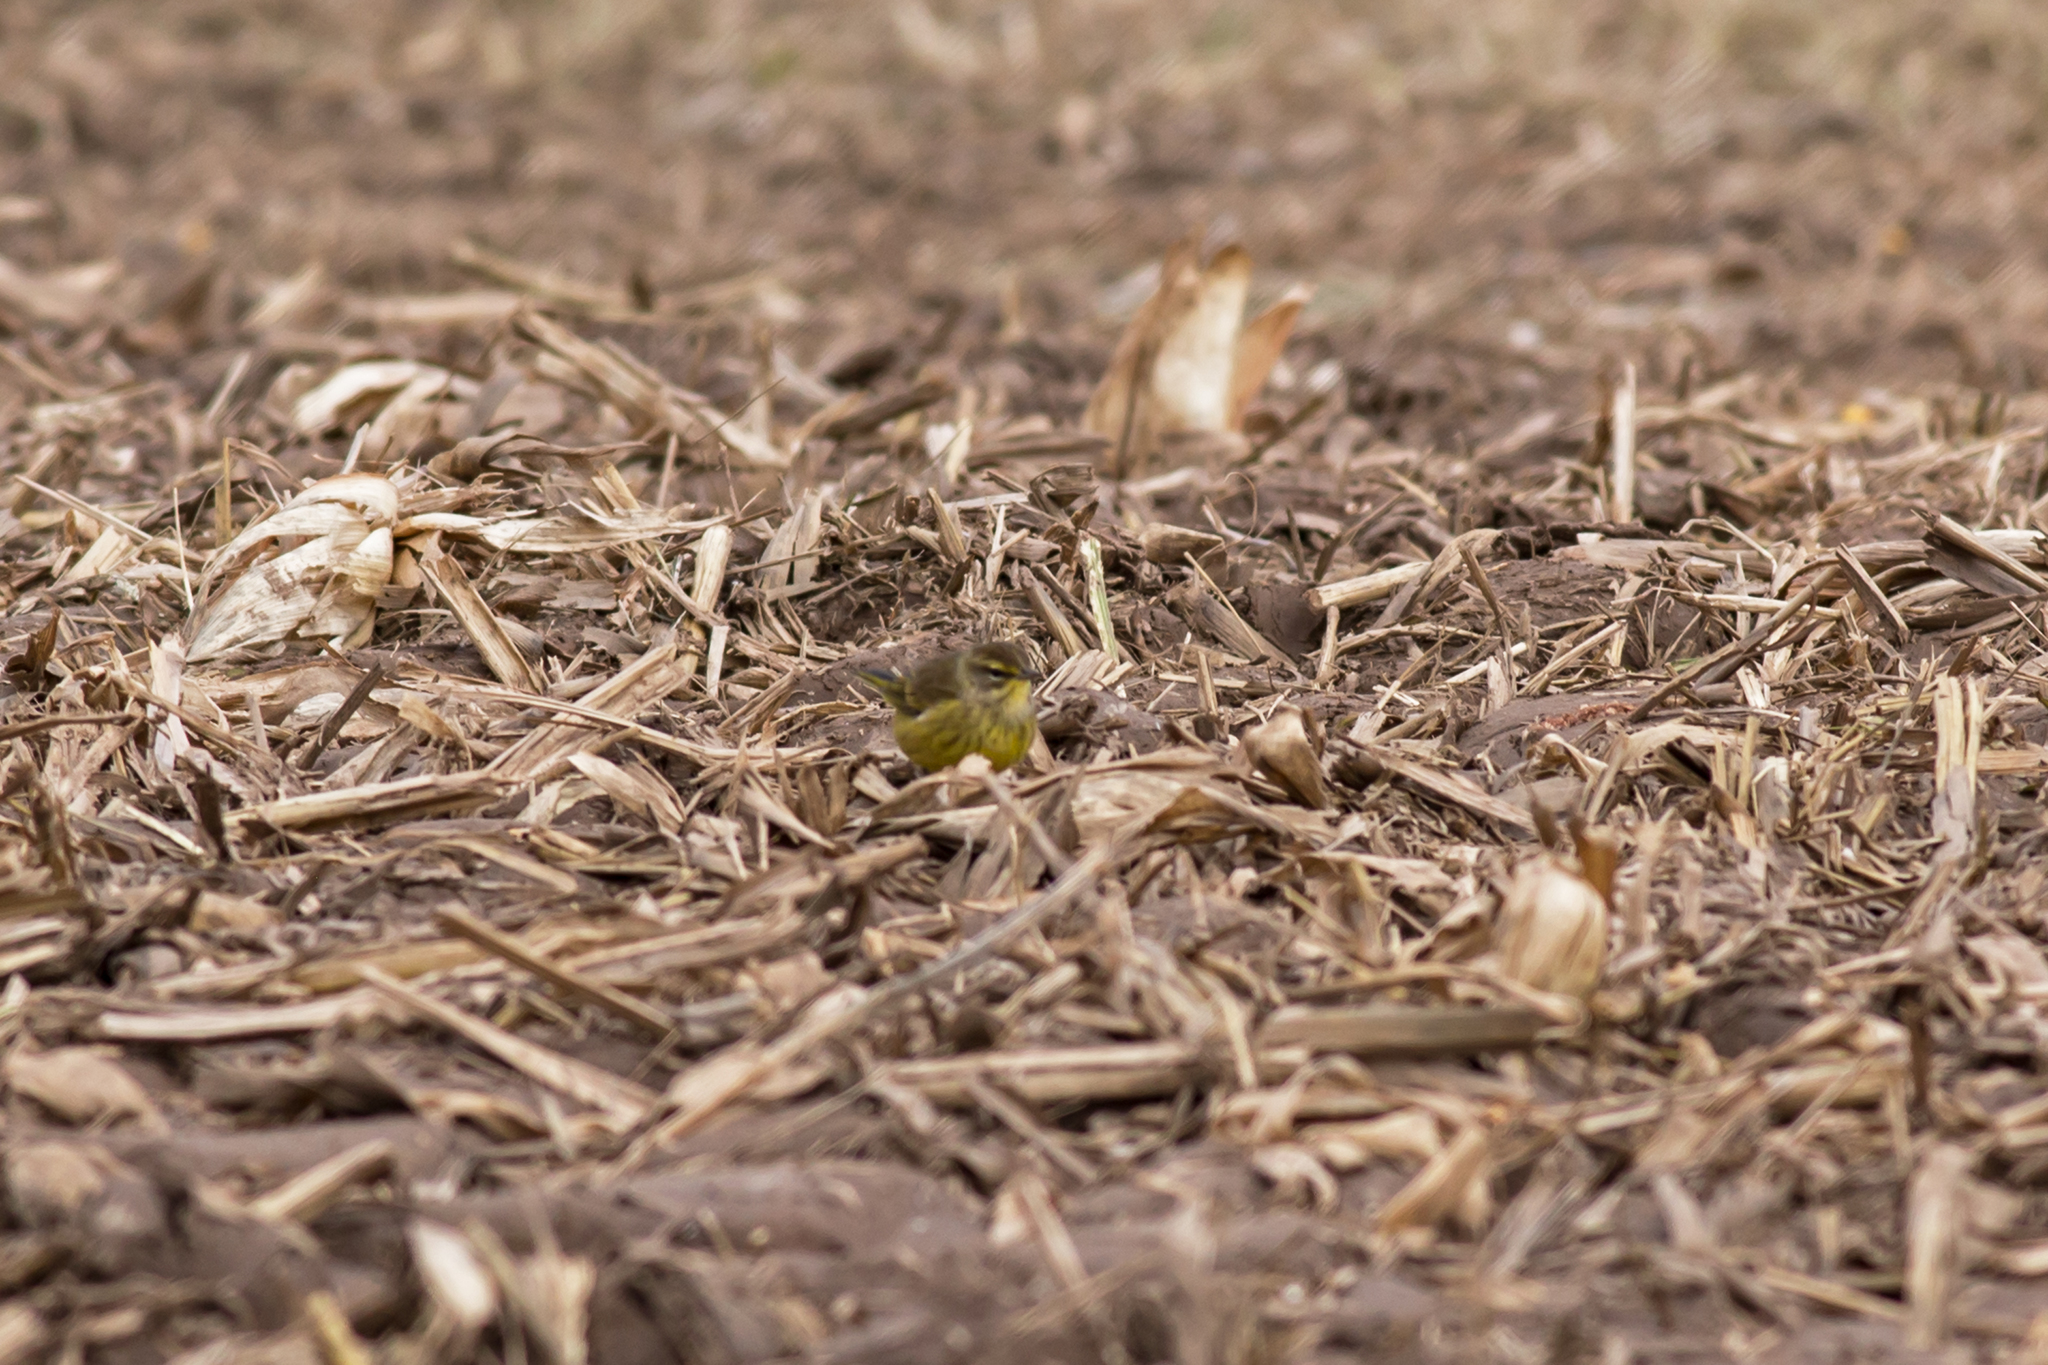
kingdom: Animalia
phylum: Chordata
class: Aves
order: Passeriformes
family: Parulidae
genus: Setophaga
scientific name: Setophaga palmarum
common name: Palm warbler
